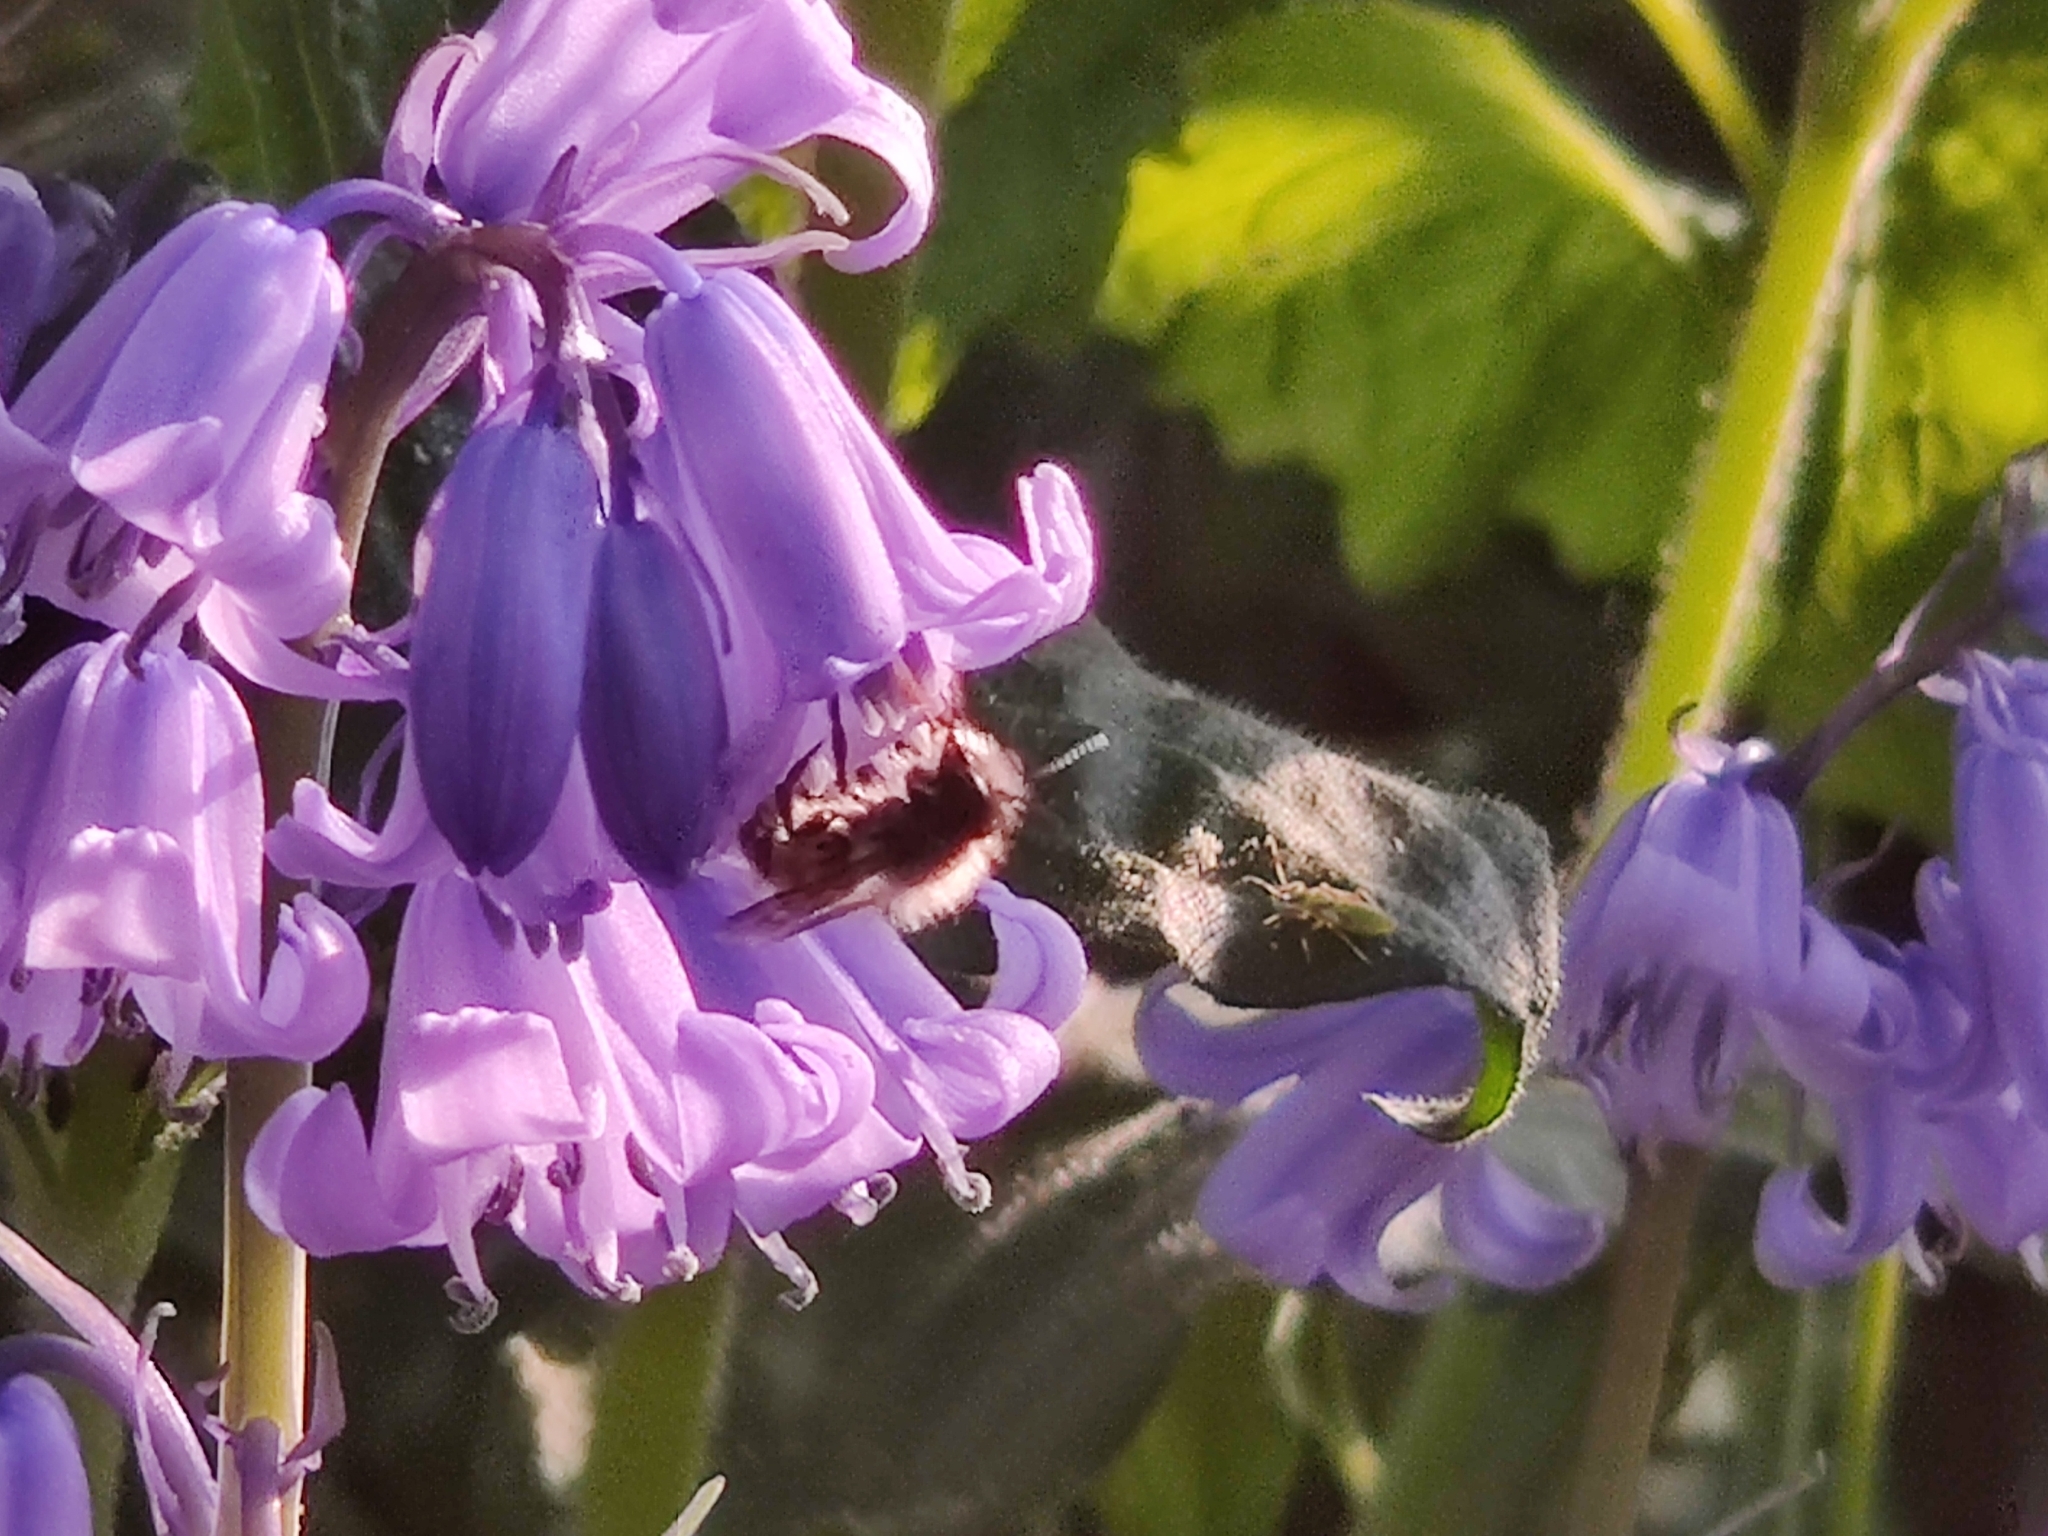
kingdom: Animalia
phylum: Arthropoda
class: Insecta
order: Hymenoptera
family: Megachilidae
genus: Osmia
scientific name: Osmia bicornis
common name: Red mason bee
